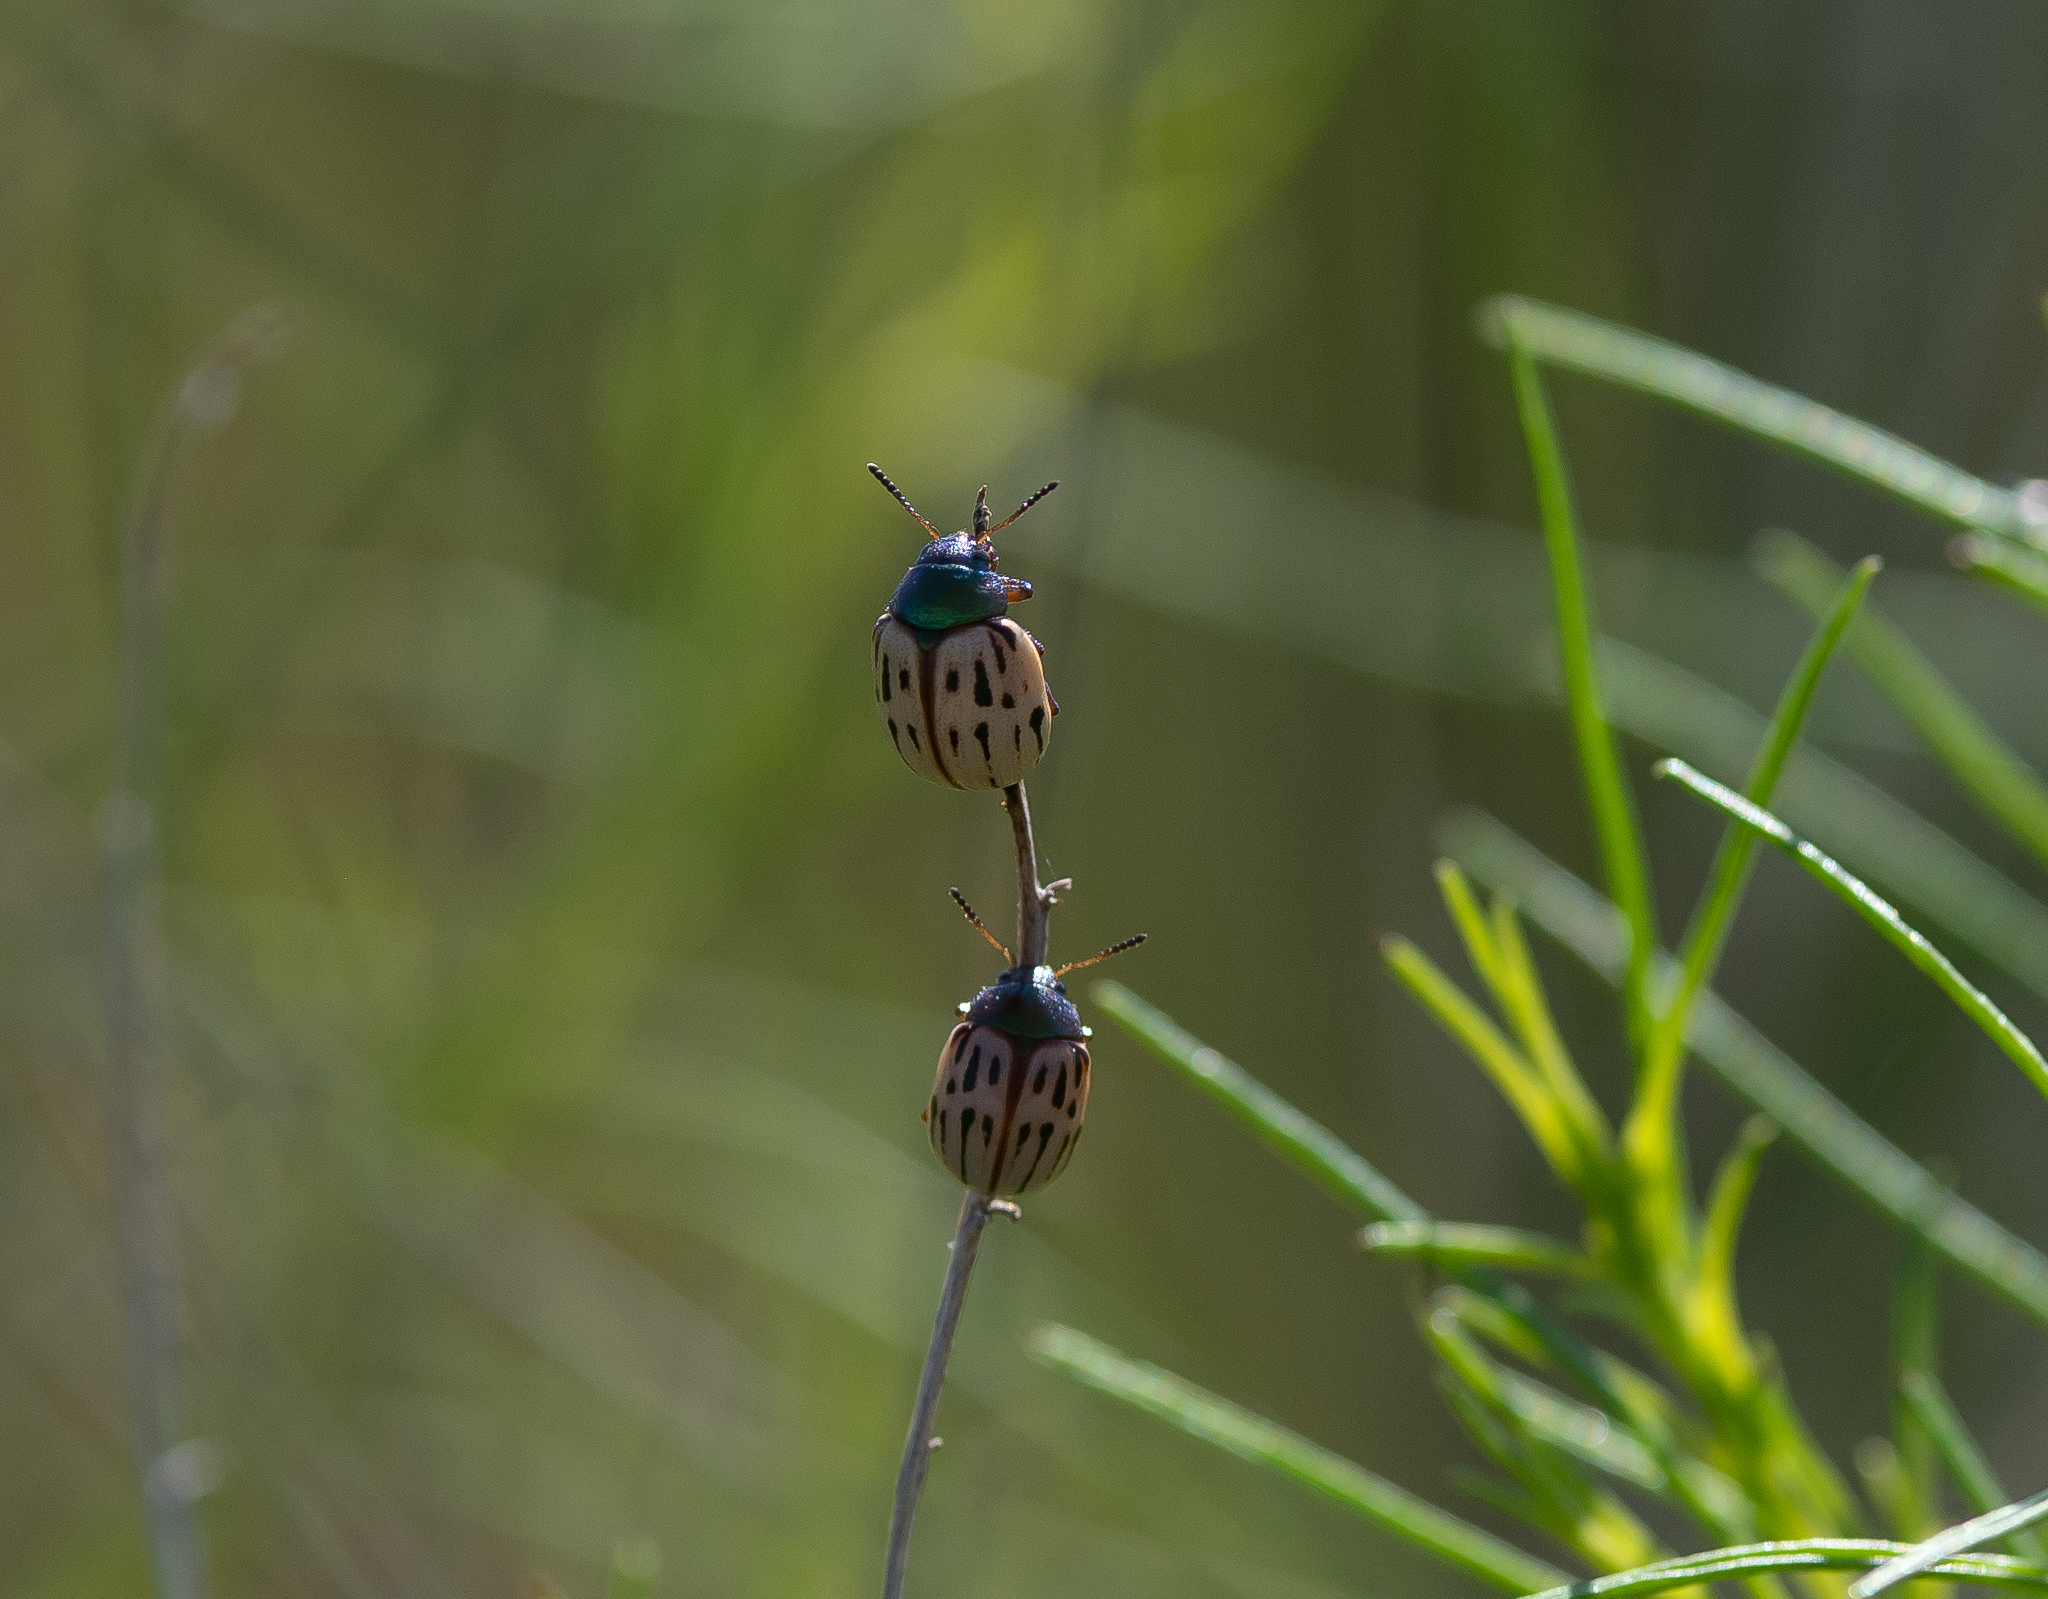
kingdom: Animalia
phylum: Arthropoda
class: Insecta
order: Coleoptera
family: Chrysomelidae
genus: Leptinotarsa
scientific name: Leptinotarsa lineolata
